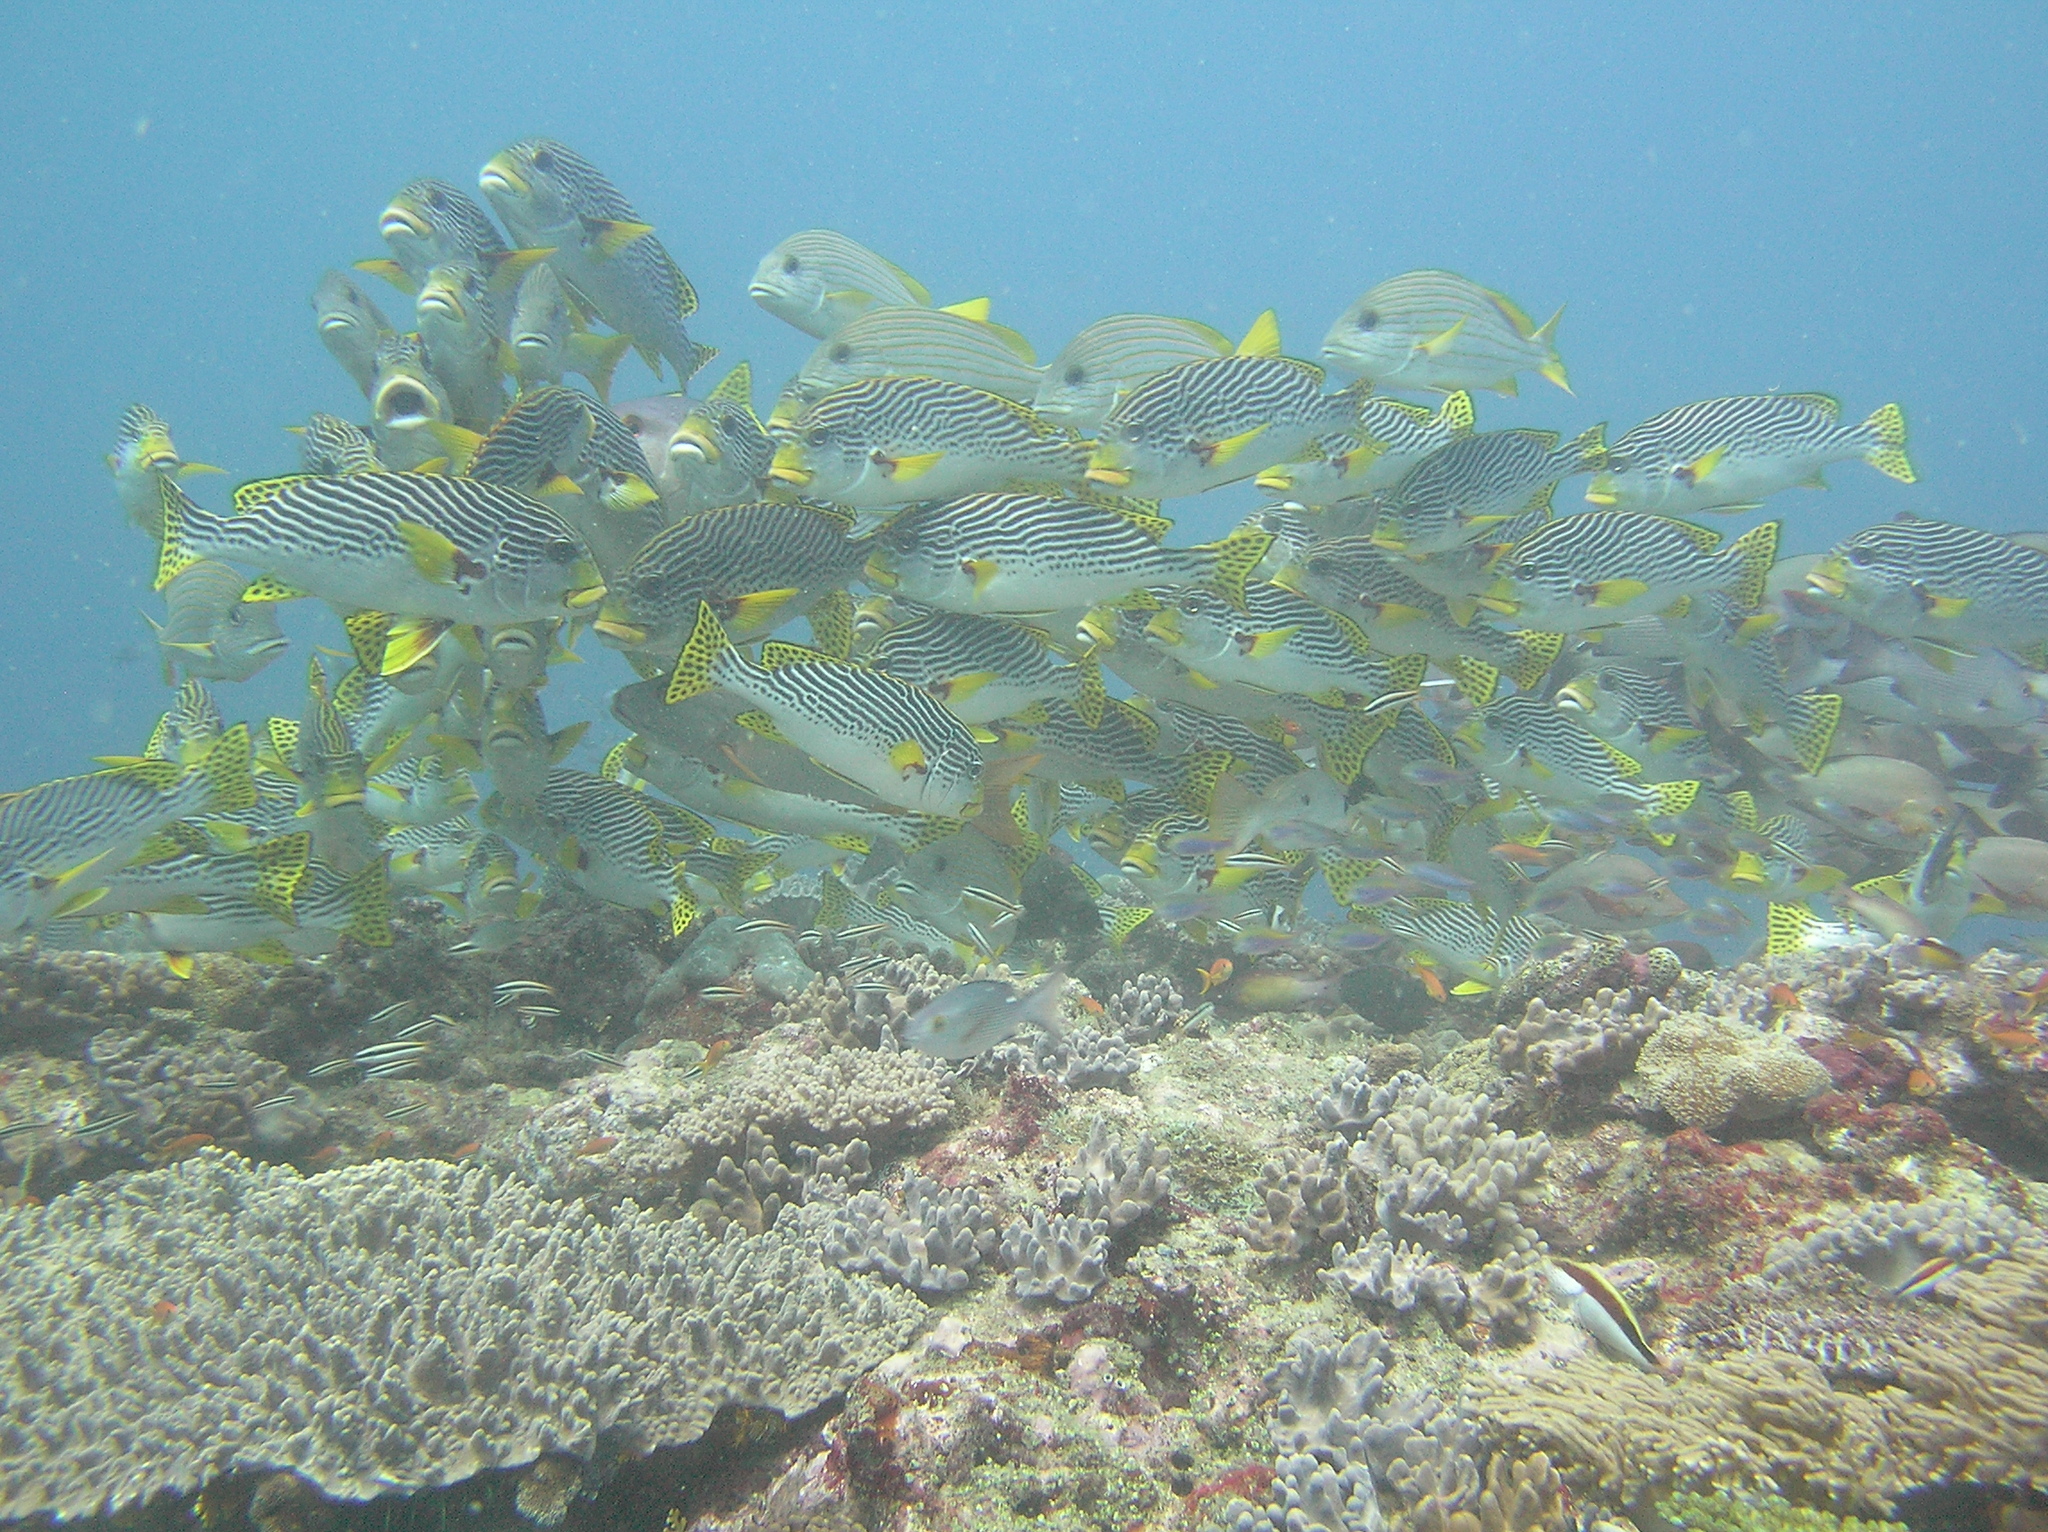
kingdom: Animalia
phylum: Chordata
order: Perciformes
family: Cirrhitidae
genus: Paracirrhites
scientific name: Paracirrhites forsteri
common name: Freckled hawkfish
